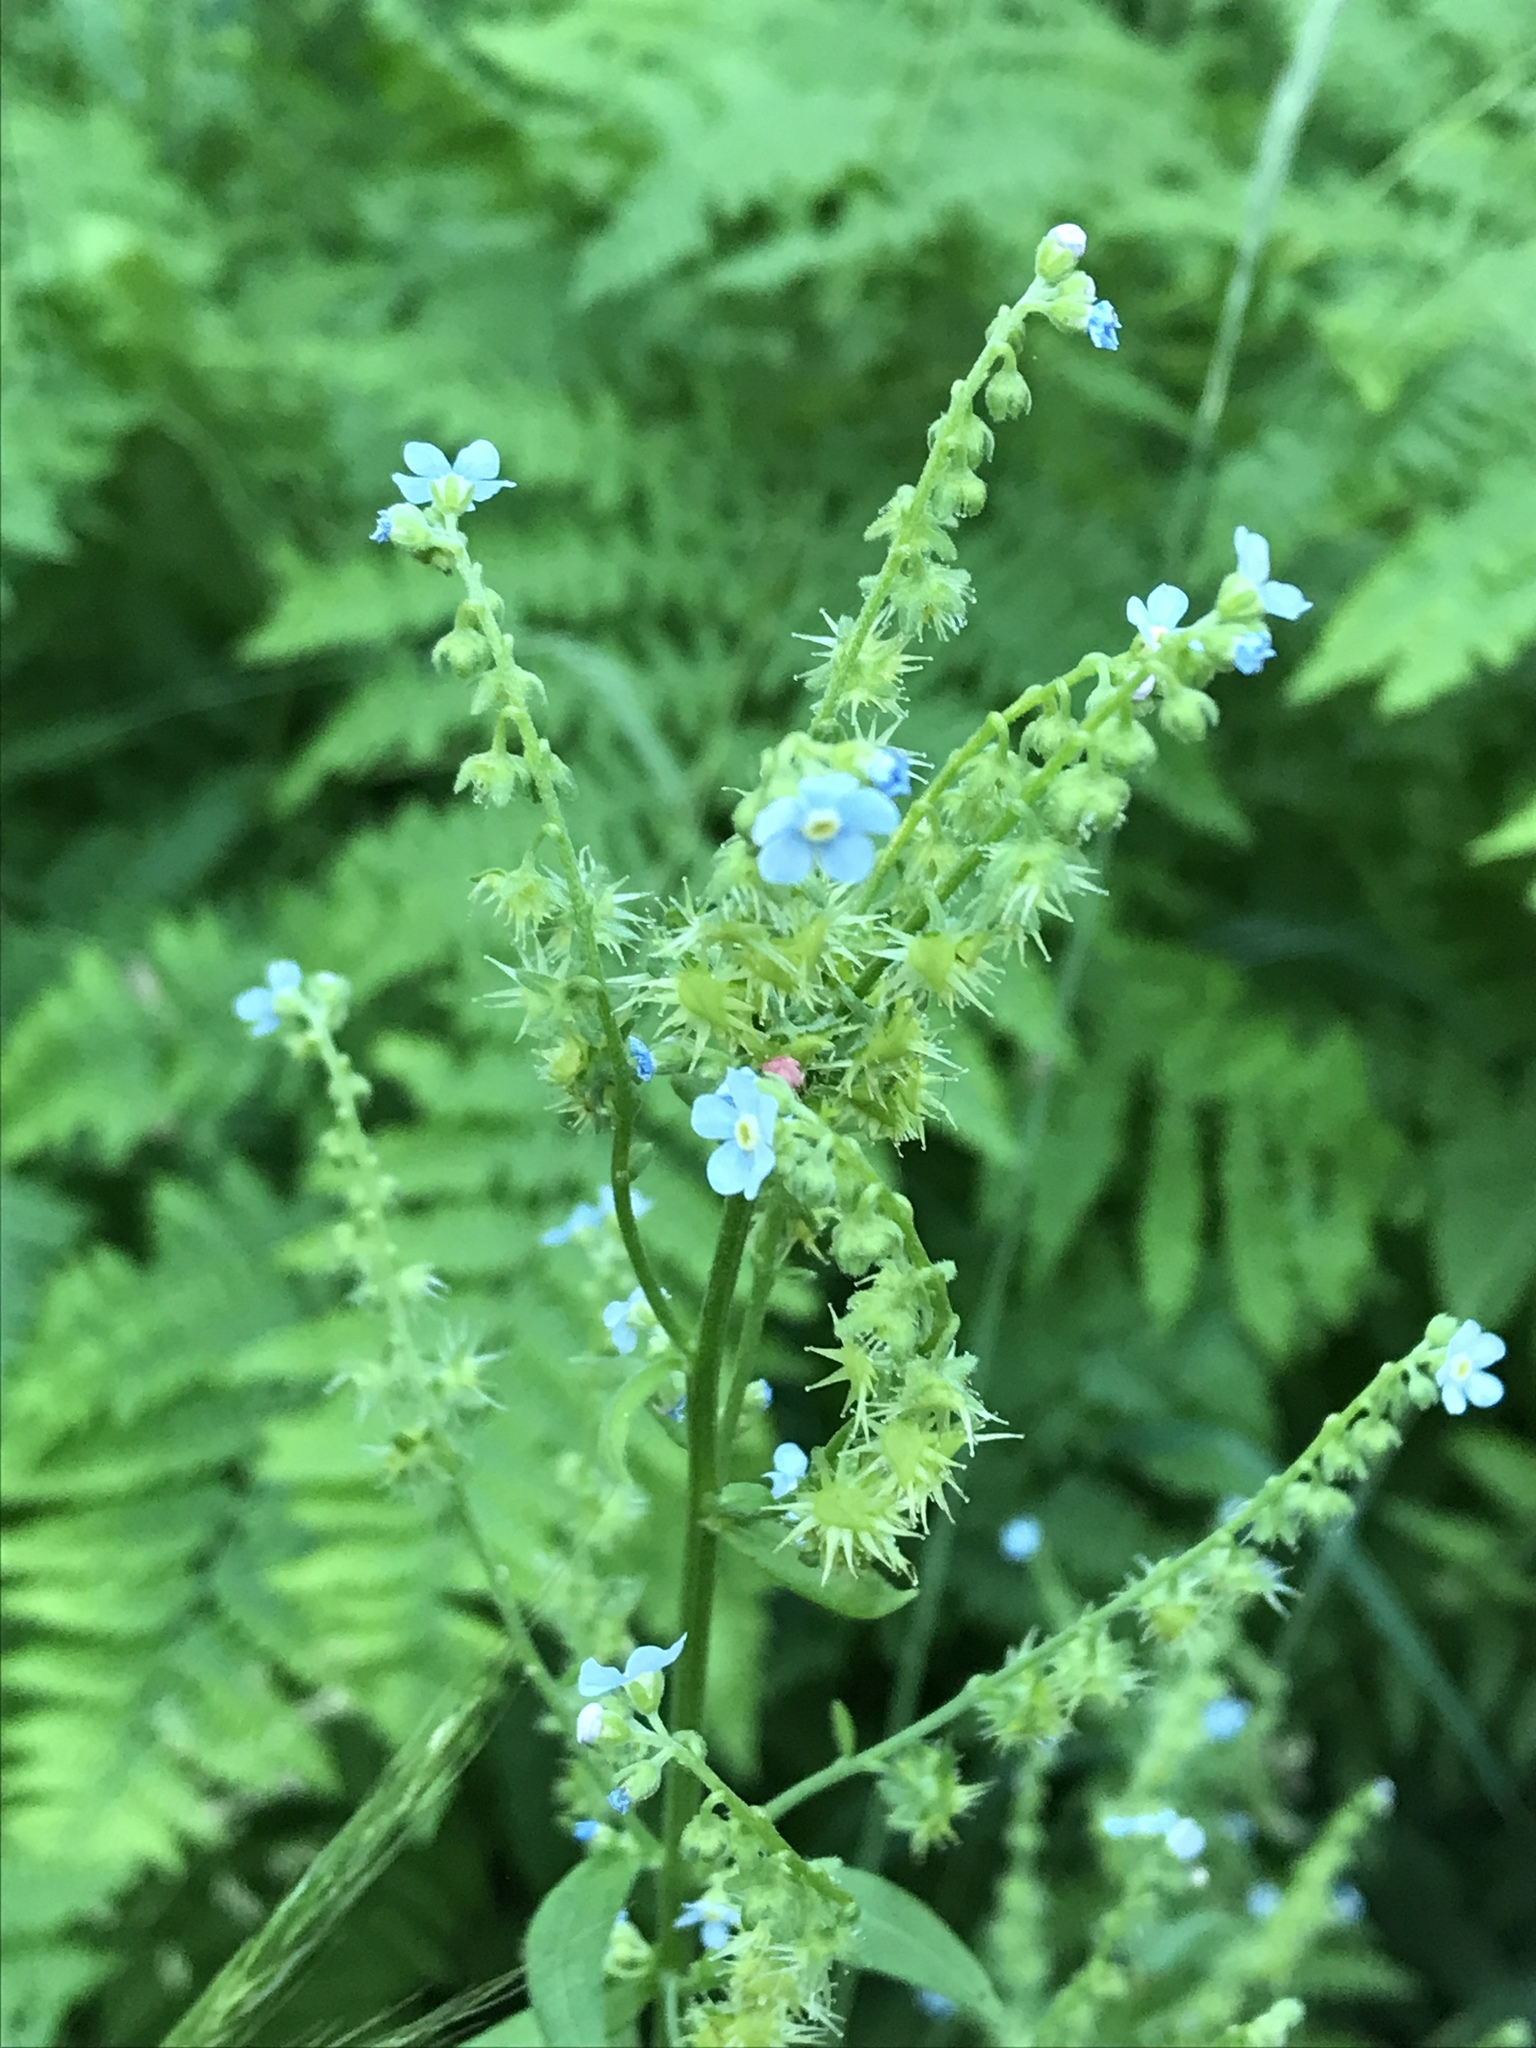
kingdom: Plantae
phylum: Tracheophyta
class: Magnoliopsida
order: Boraginales
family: Boraginaceae
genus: Hackelia
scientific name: Hackelia floribunda
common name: Large-flowered stickseed
